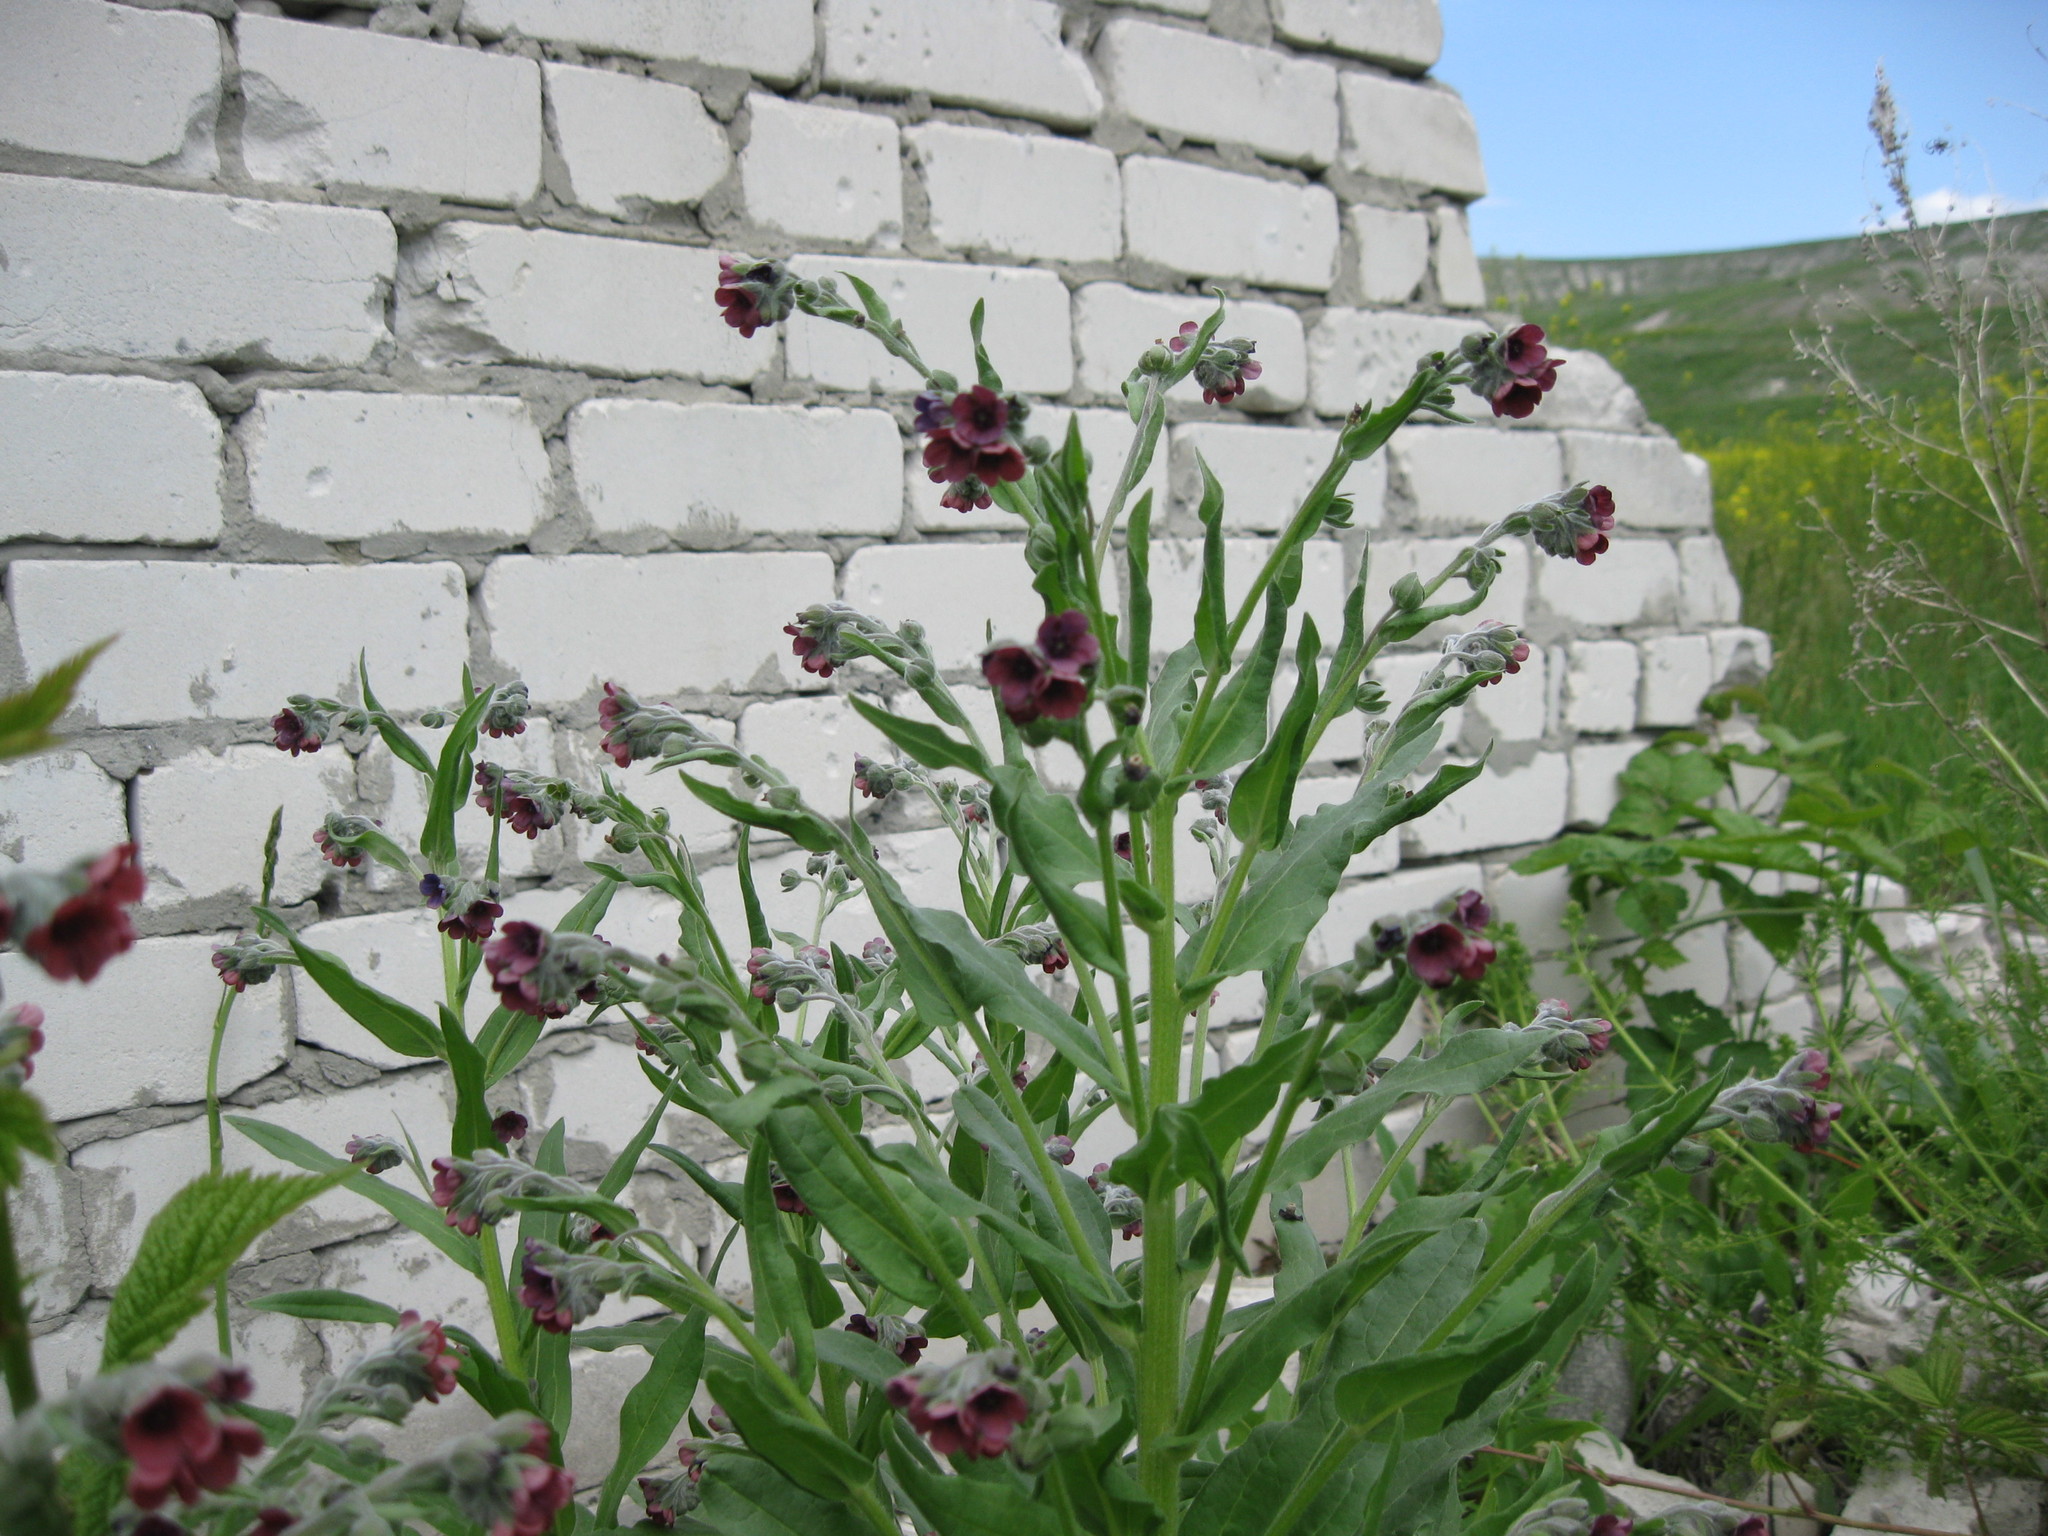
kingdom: Plantae
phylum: Tracheophyta
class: Magnoliopsida
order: Boraginales
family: Boraginaceae
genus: Cynoglossum
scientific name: Cynoglossum officinale
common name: Hound's-tongue
